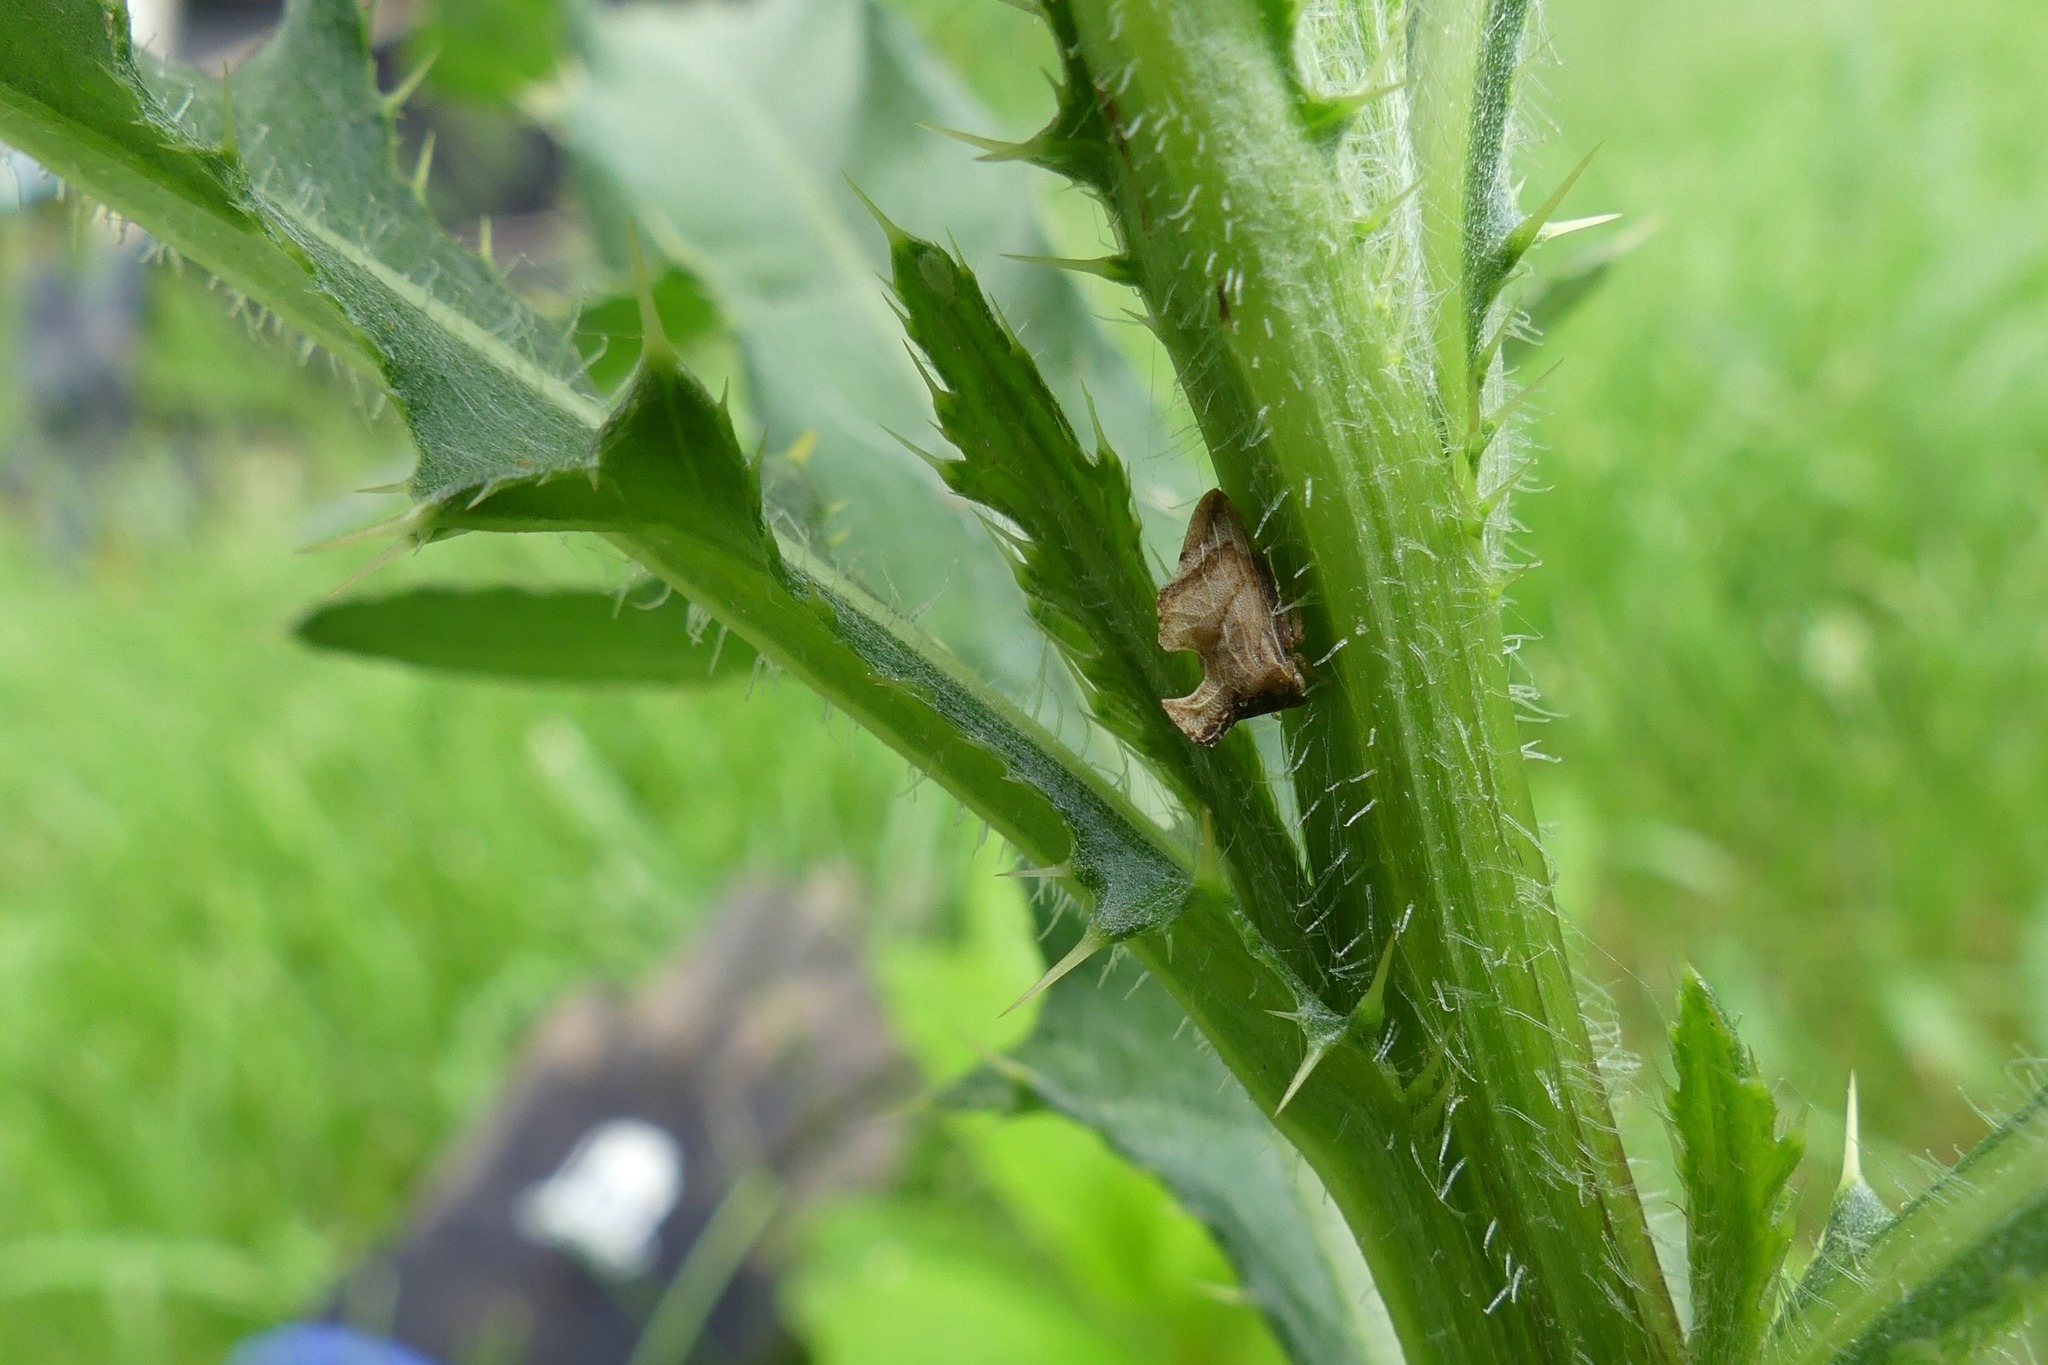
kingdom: Animalia
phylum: Arthropoda
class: Insecta
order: Hemiptera
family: Membracidae
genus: Entylia
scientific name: Entylia carinata
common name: Keeled treehopper
